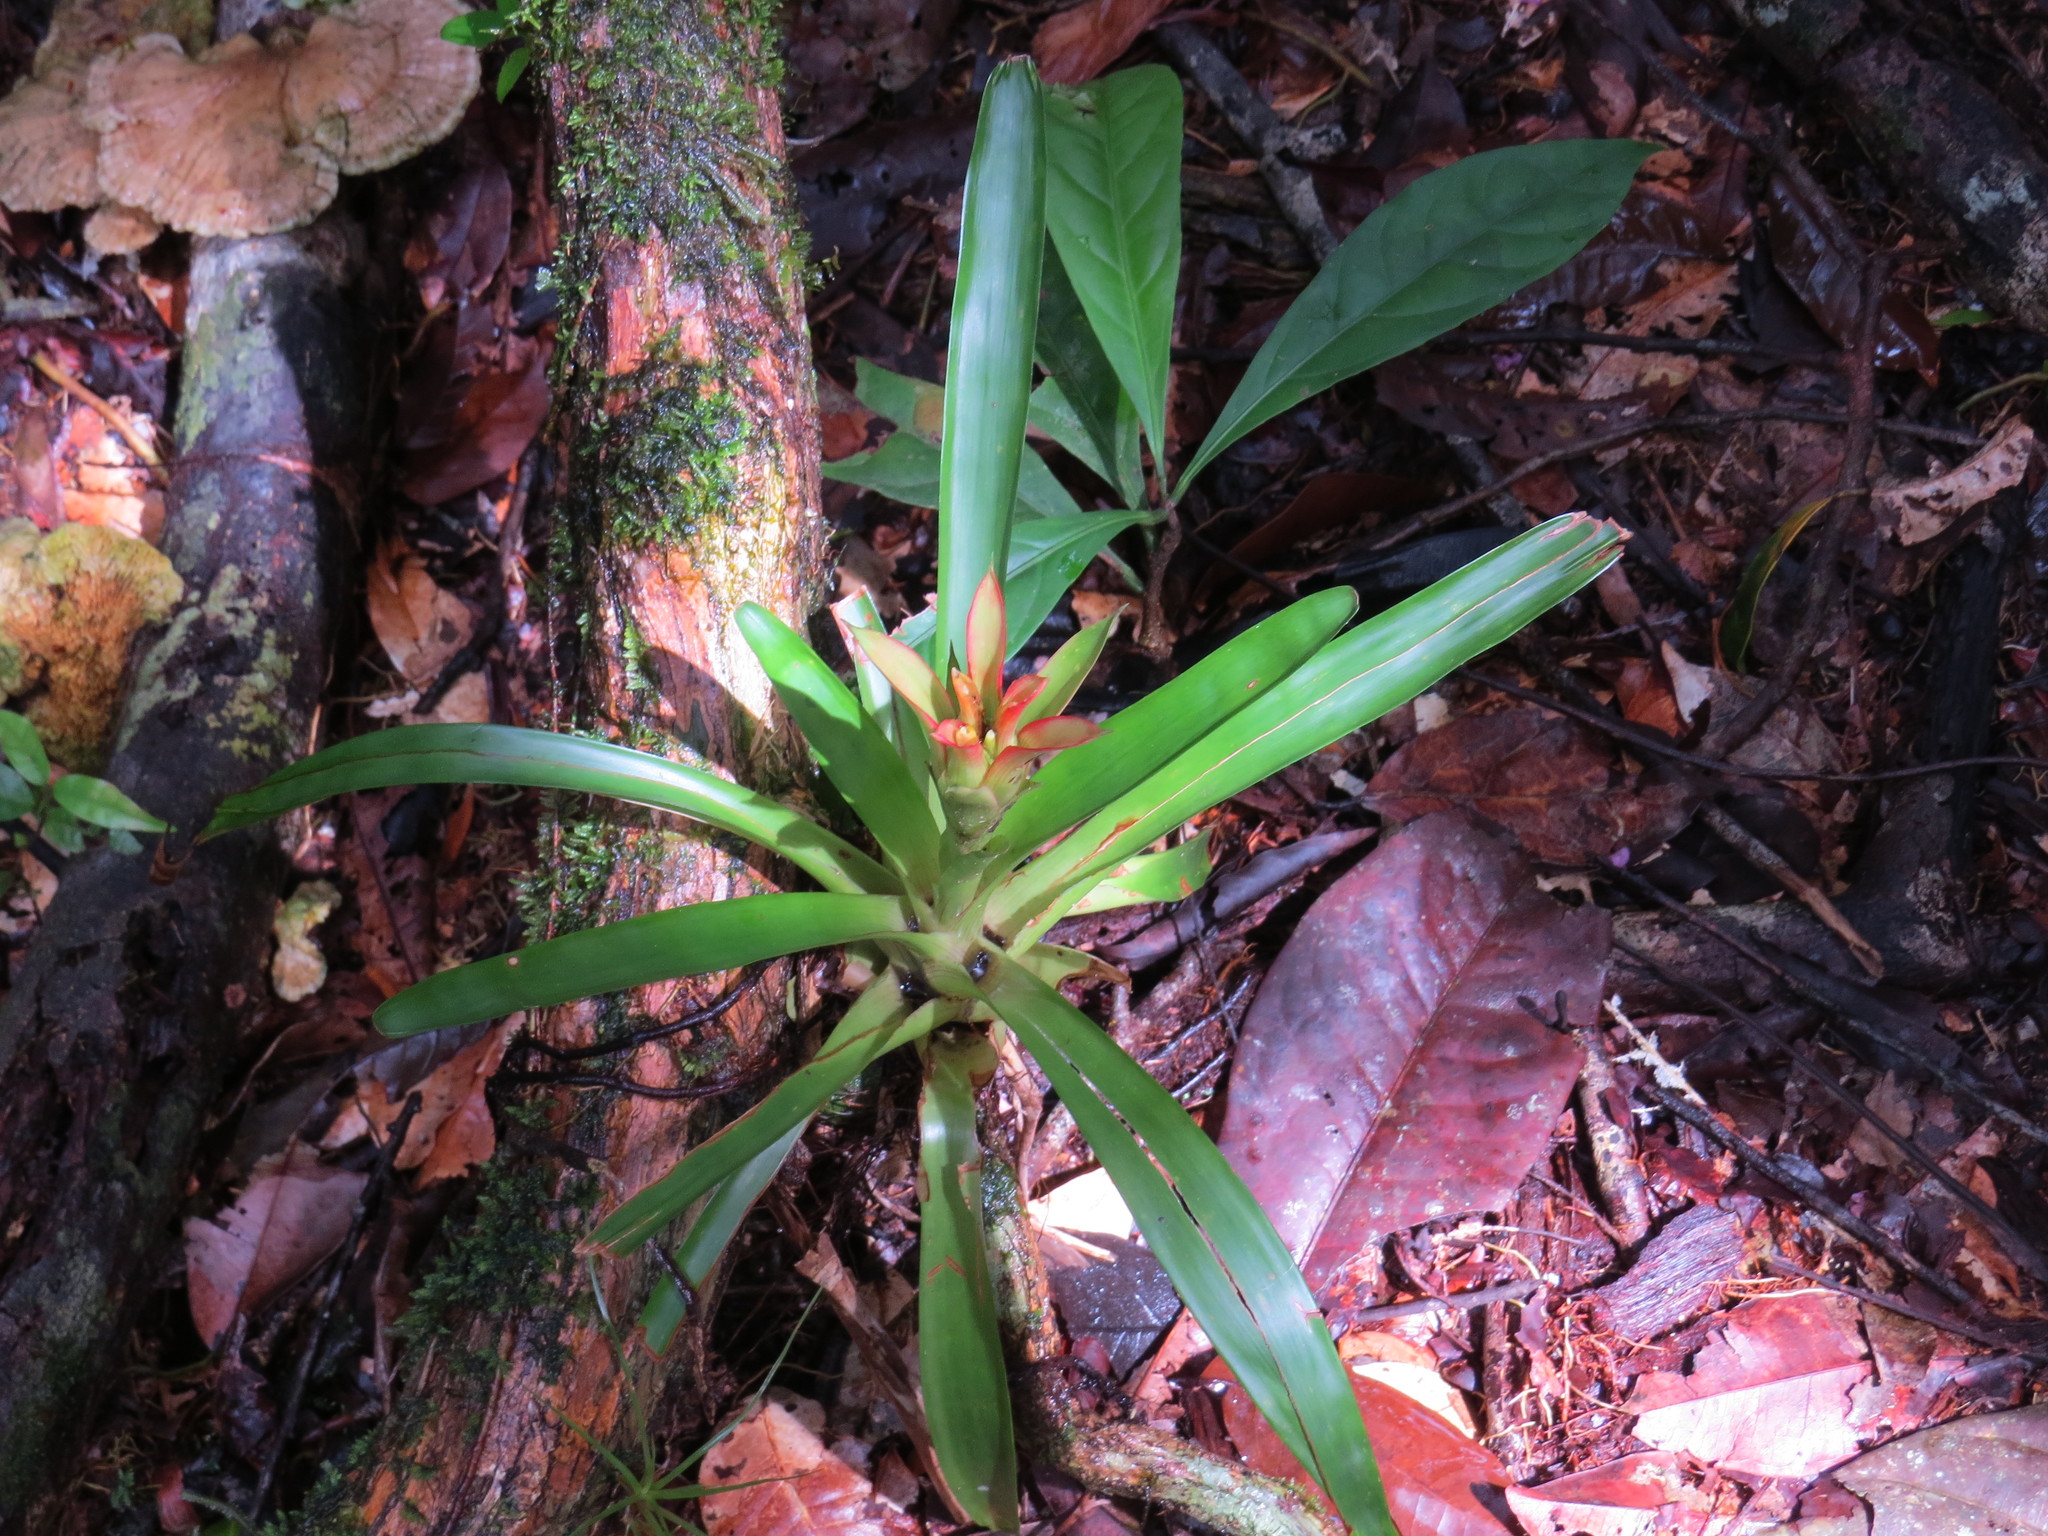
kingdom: Plantae
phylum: Tracheophyta
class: Liliopsida
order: Poales
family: Bromeliaceae
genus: Guzmania
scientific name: Guzmania lingulata
